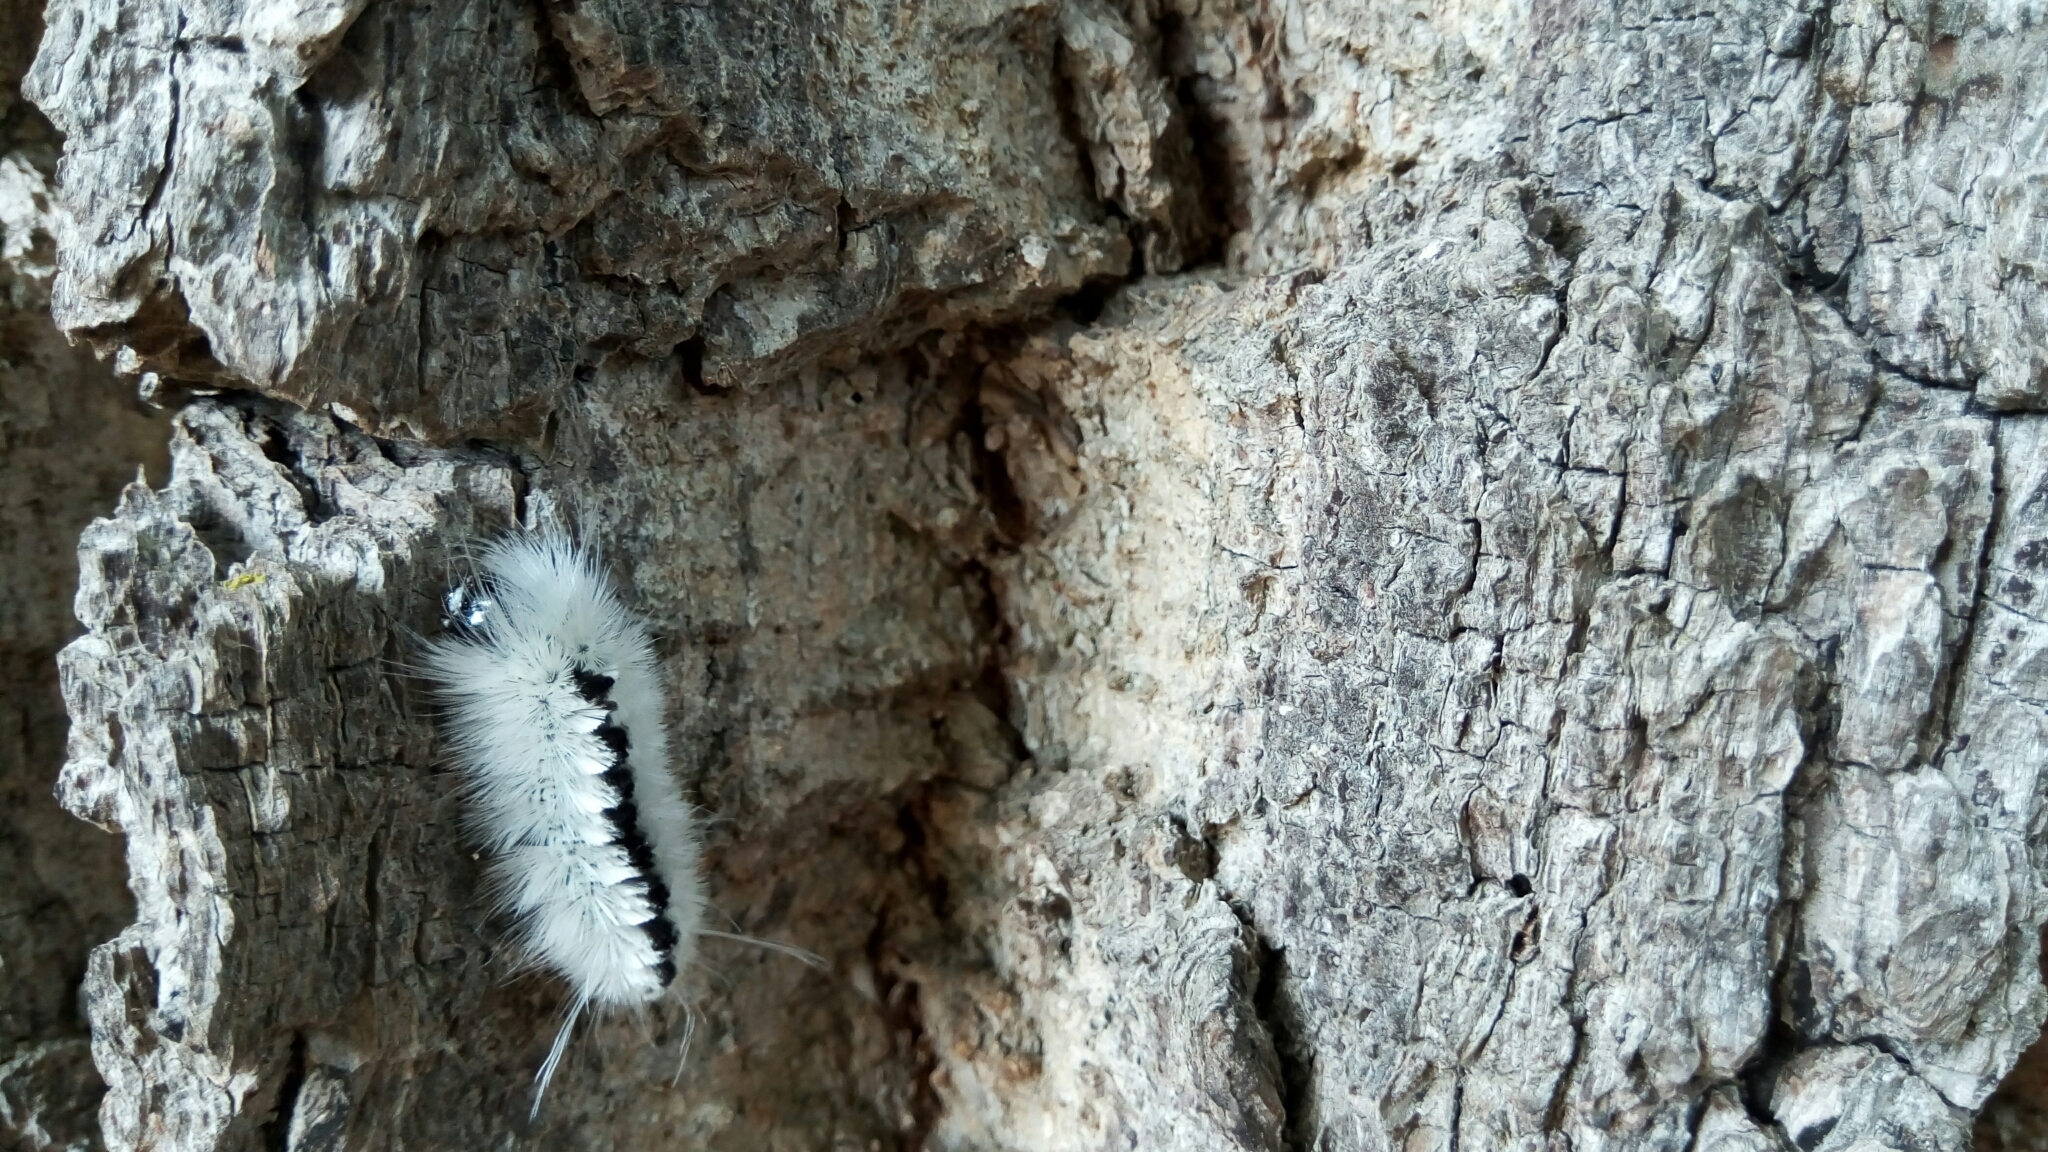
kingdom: Animalia
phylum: Arthropoda
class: Insecta
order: Lepidoptera
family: Erebidae
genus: Lophocampa
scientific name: Lophocampa caryae
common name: Hickory tussock moth
